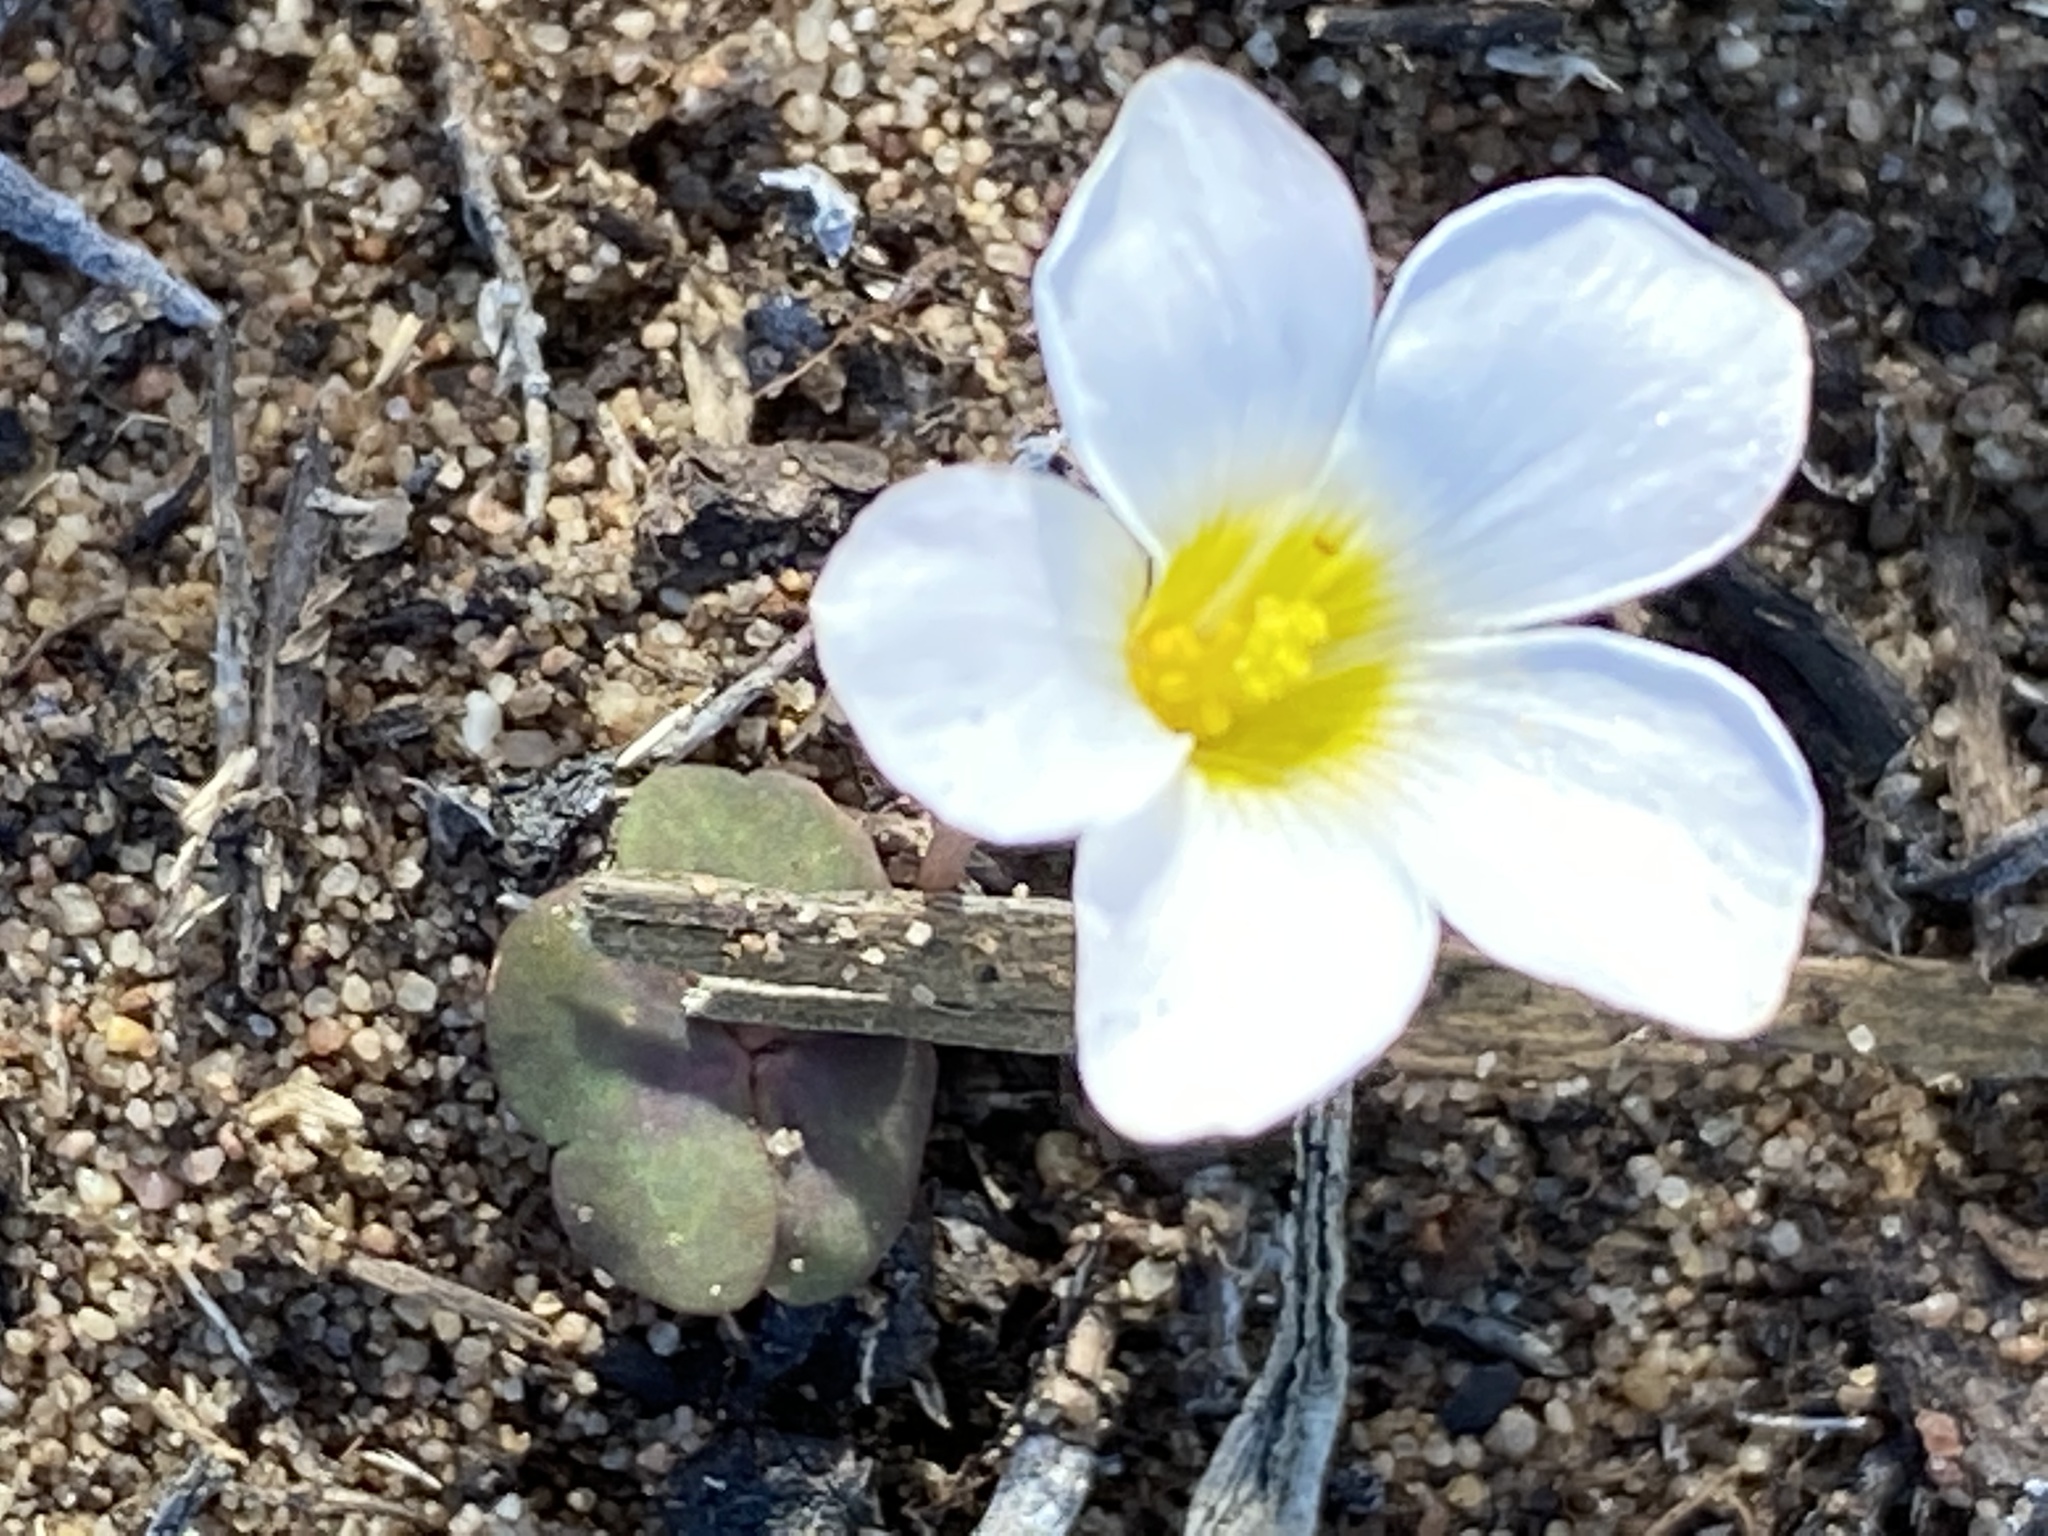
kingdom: Plantae
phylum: Tracheophyta
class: Magnoliopsida
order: Oxalidales
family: Oxalidaceae
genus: Oxalis
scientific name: Oxalis depressa
